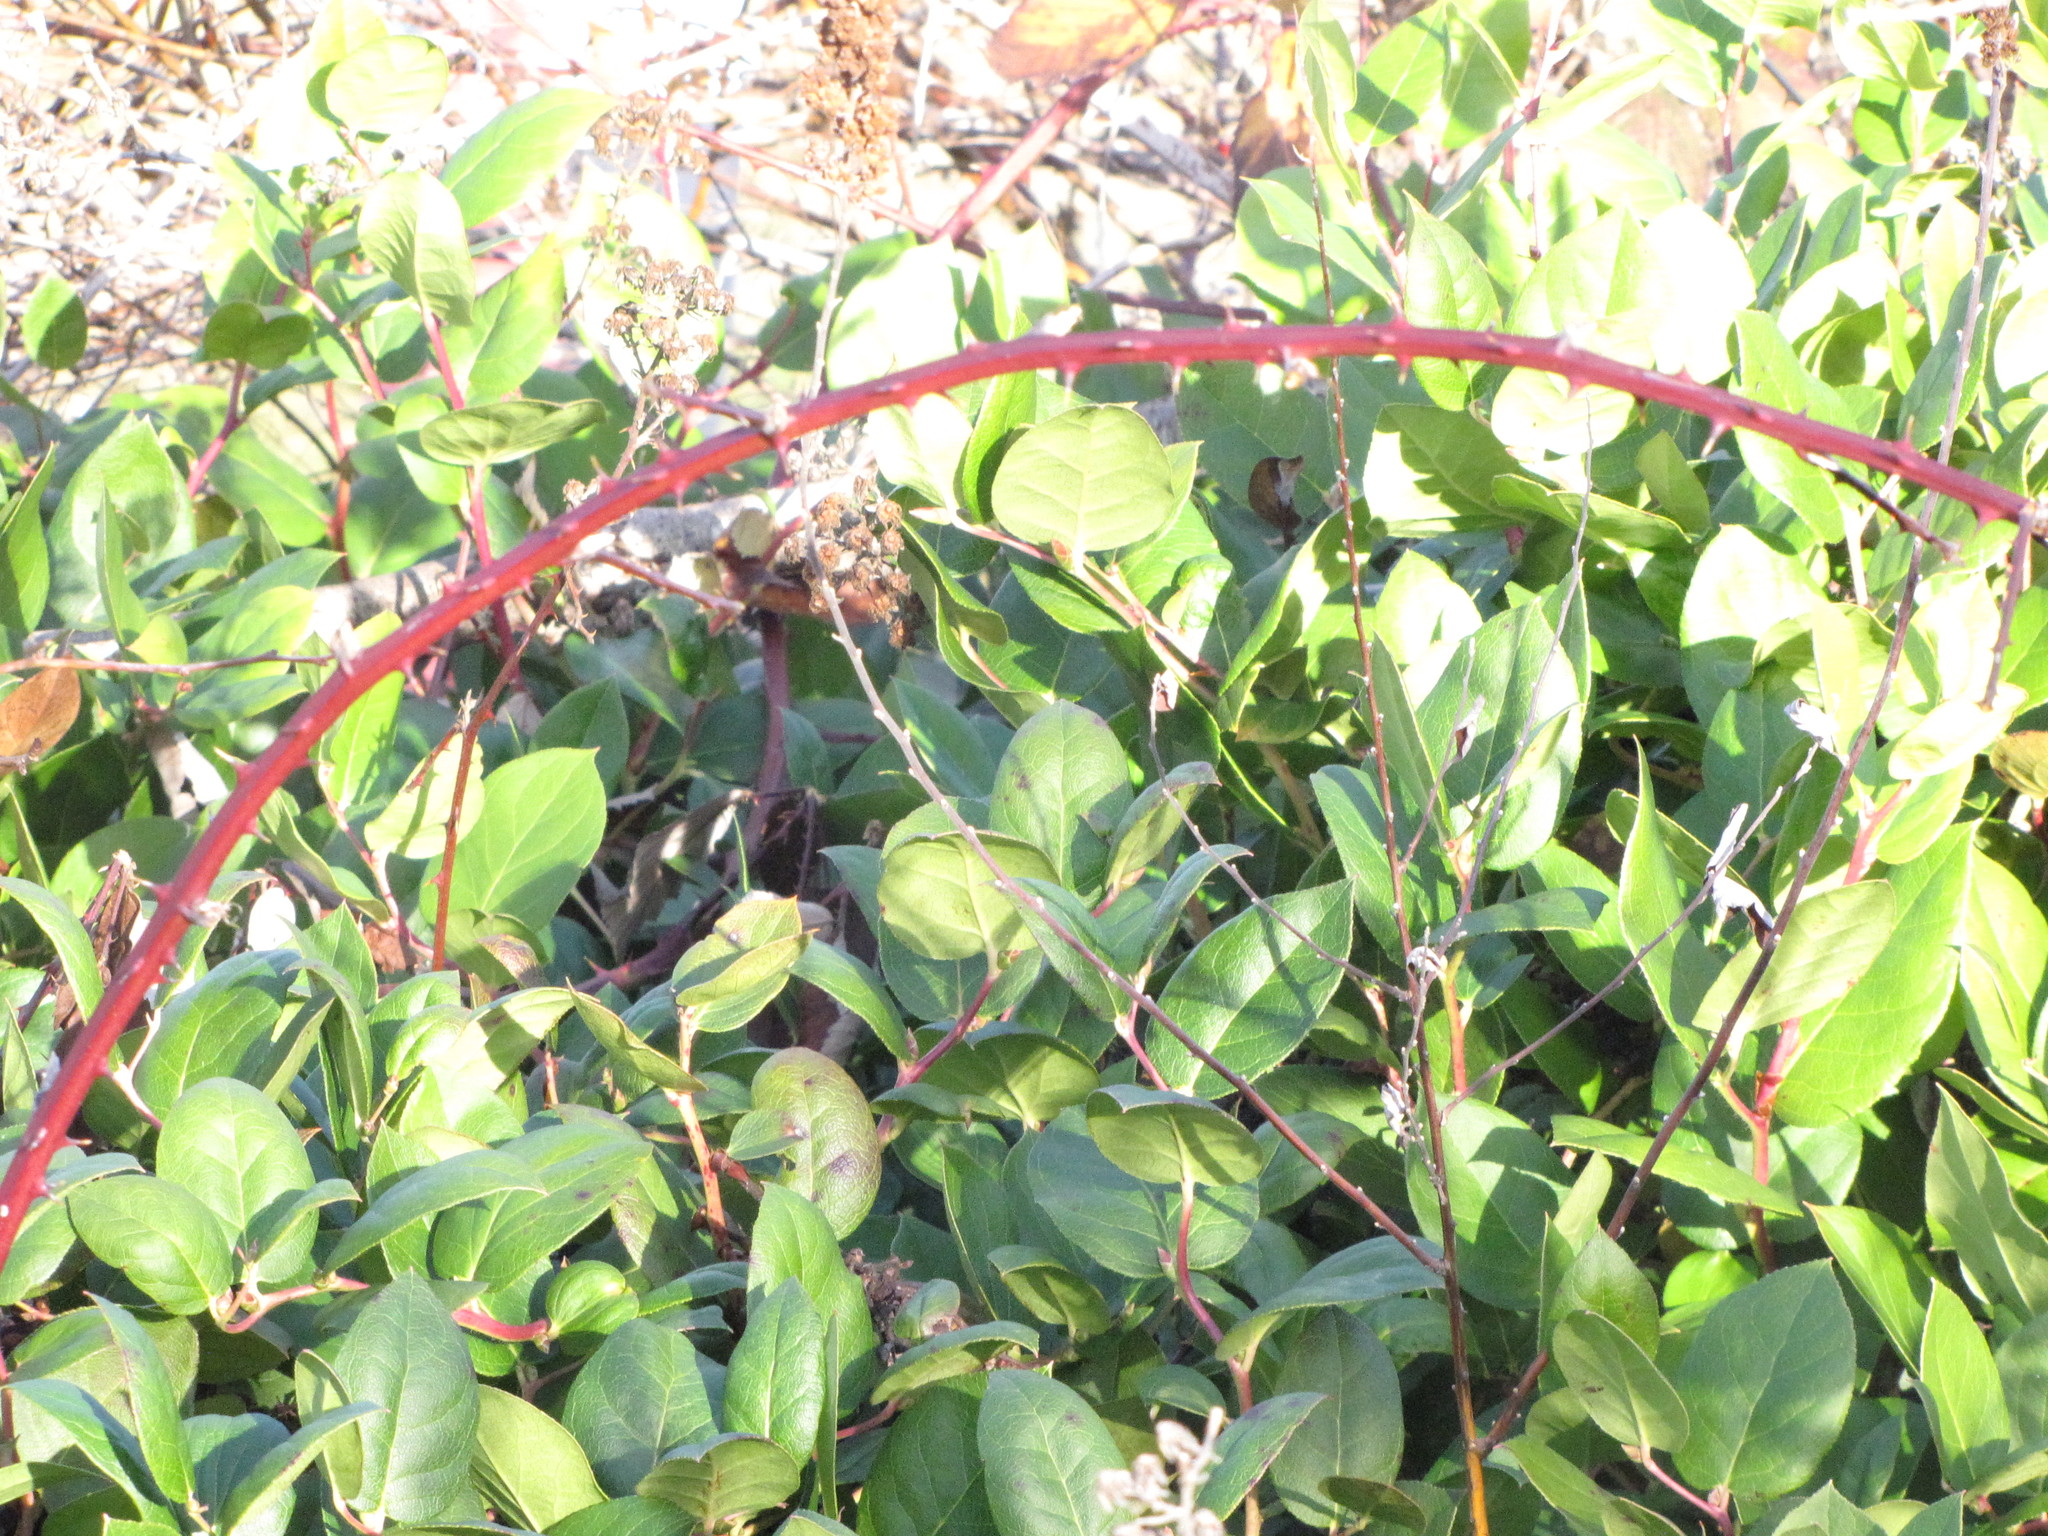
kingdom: Plantae
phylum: Tracheophyta
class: Magnoliopsida
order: Ericales
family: Ericaceae
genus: Gaultheria
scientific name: Gaultheria shallon
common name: Shallon
